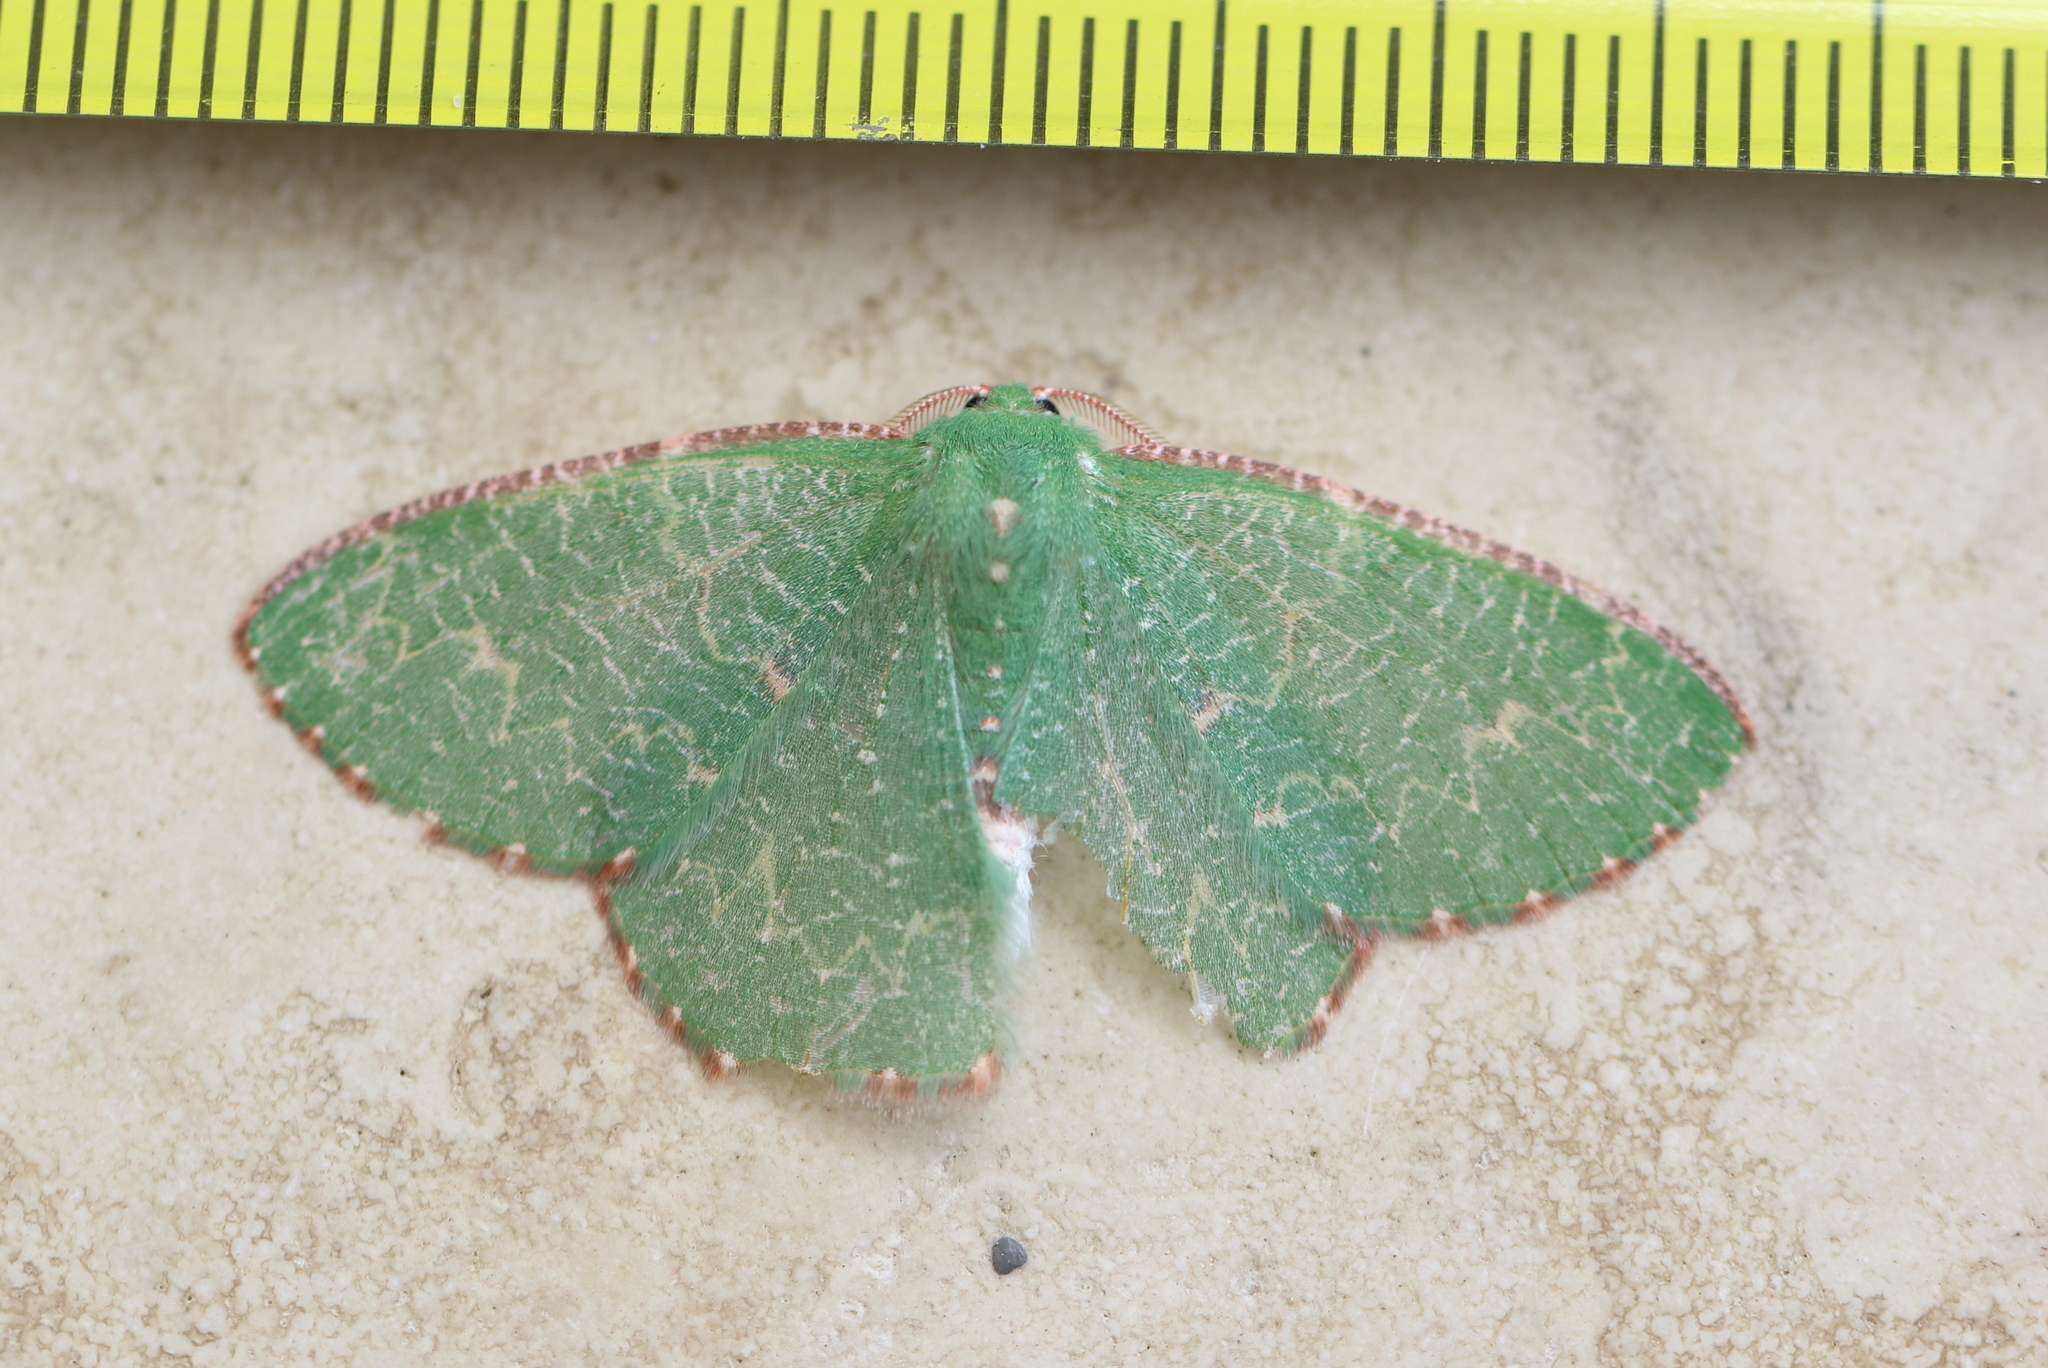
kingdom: Animalia
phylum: Arthropoda
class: Insecta
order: Lepidoptera
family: Geometridae
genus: Eucyclodes
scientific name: Eucyclodes metaspila
